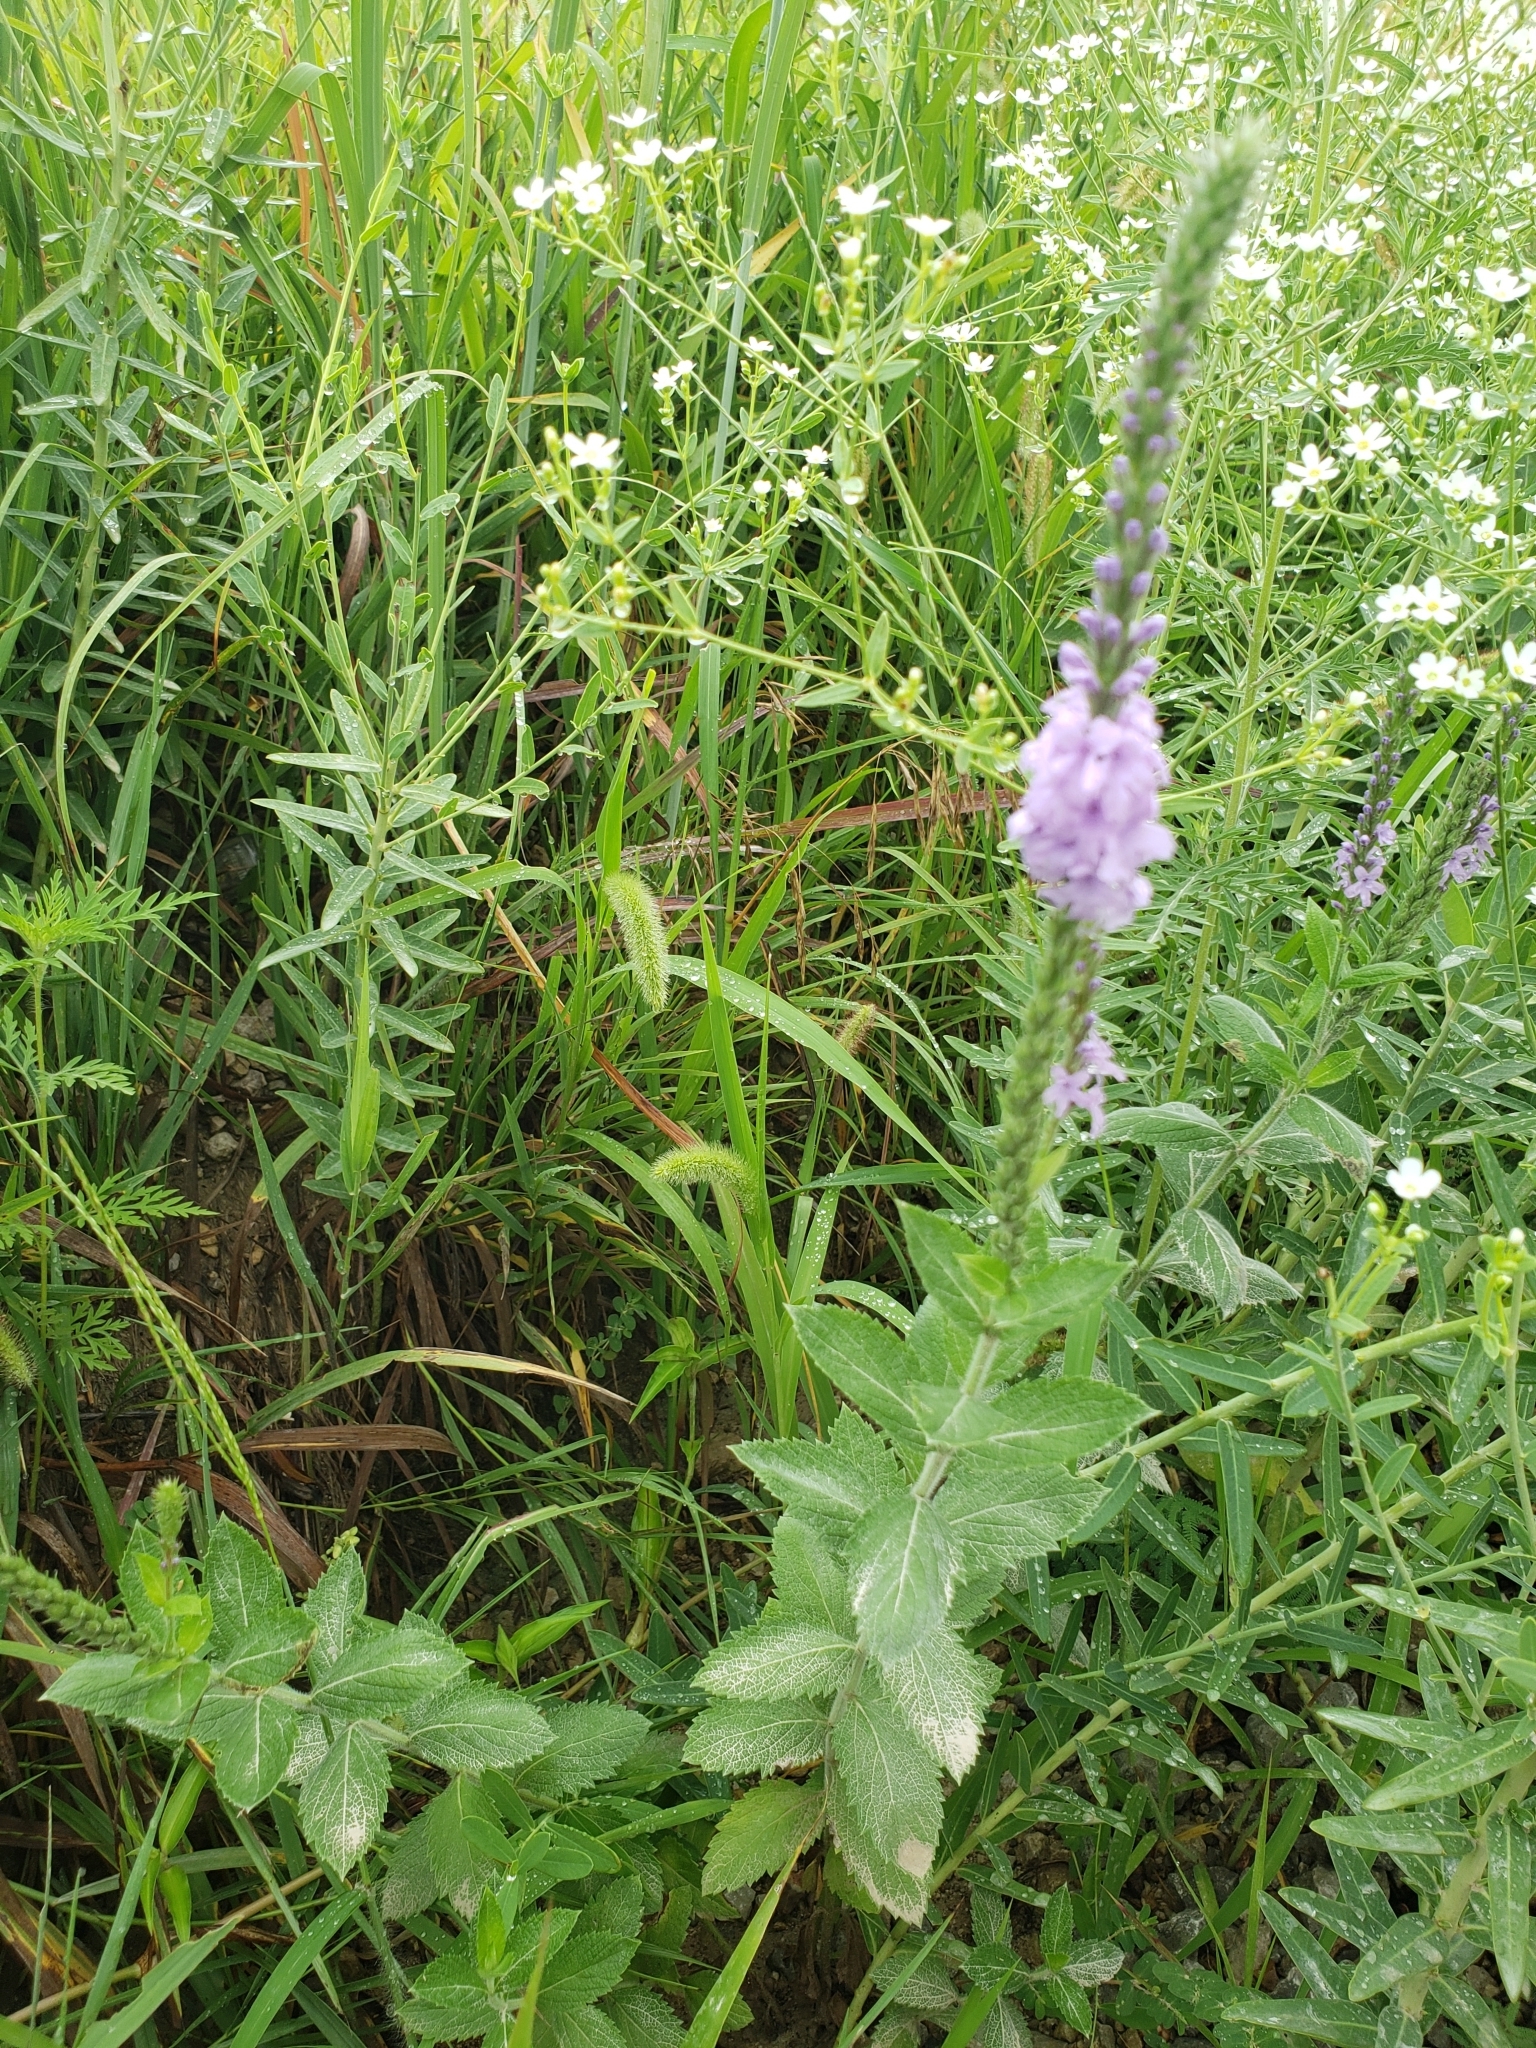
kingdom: Plantae
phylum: Tracheophyta
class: Magnoliopsida
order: Lamiales
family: Verbenaceae
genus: Verbena
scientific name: Verbena stricta
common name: Hoary vervain
